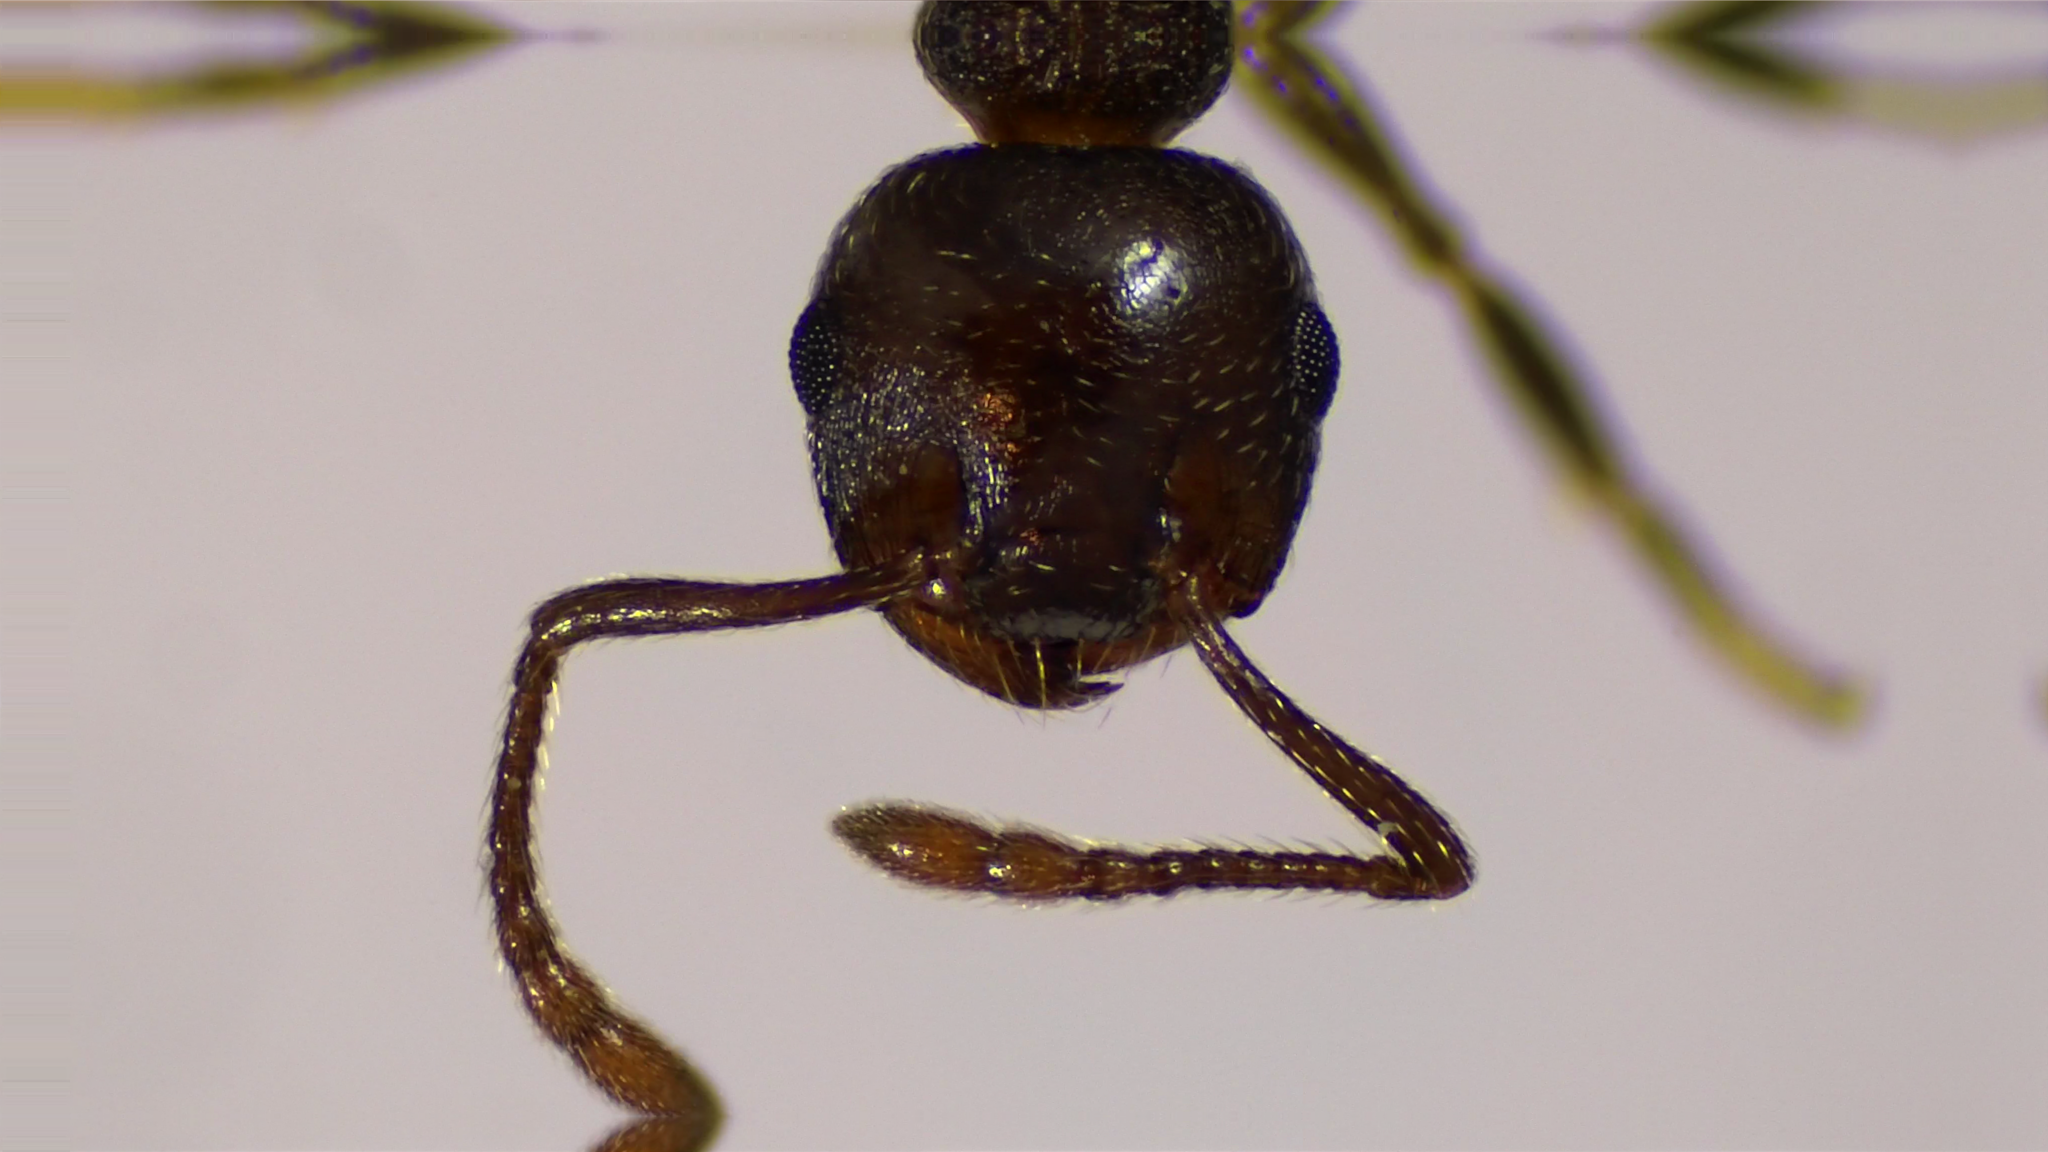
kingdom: Animalia
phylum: Arthropoda
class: Insecta
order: Hymenoptera
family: Formicidae
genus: Crematogaster
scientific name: Crematogaster lineolata
